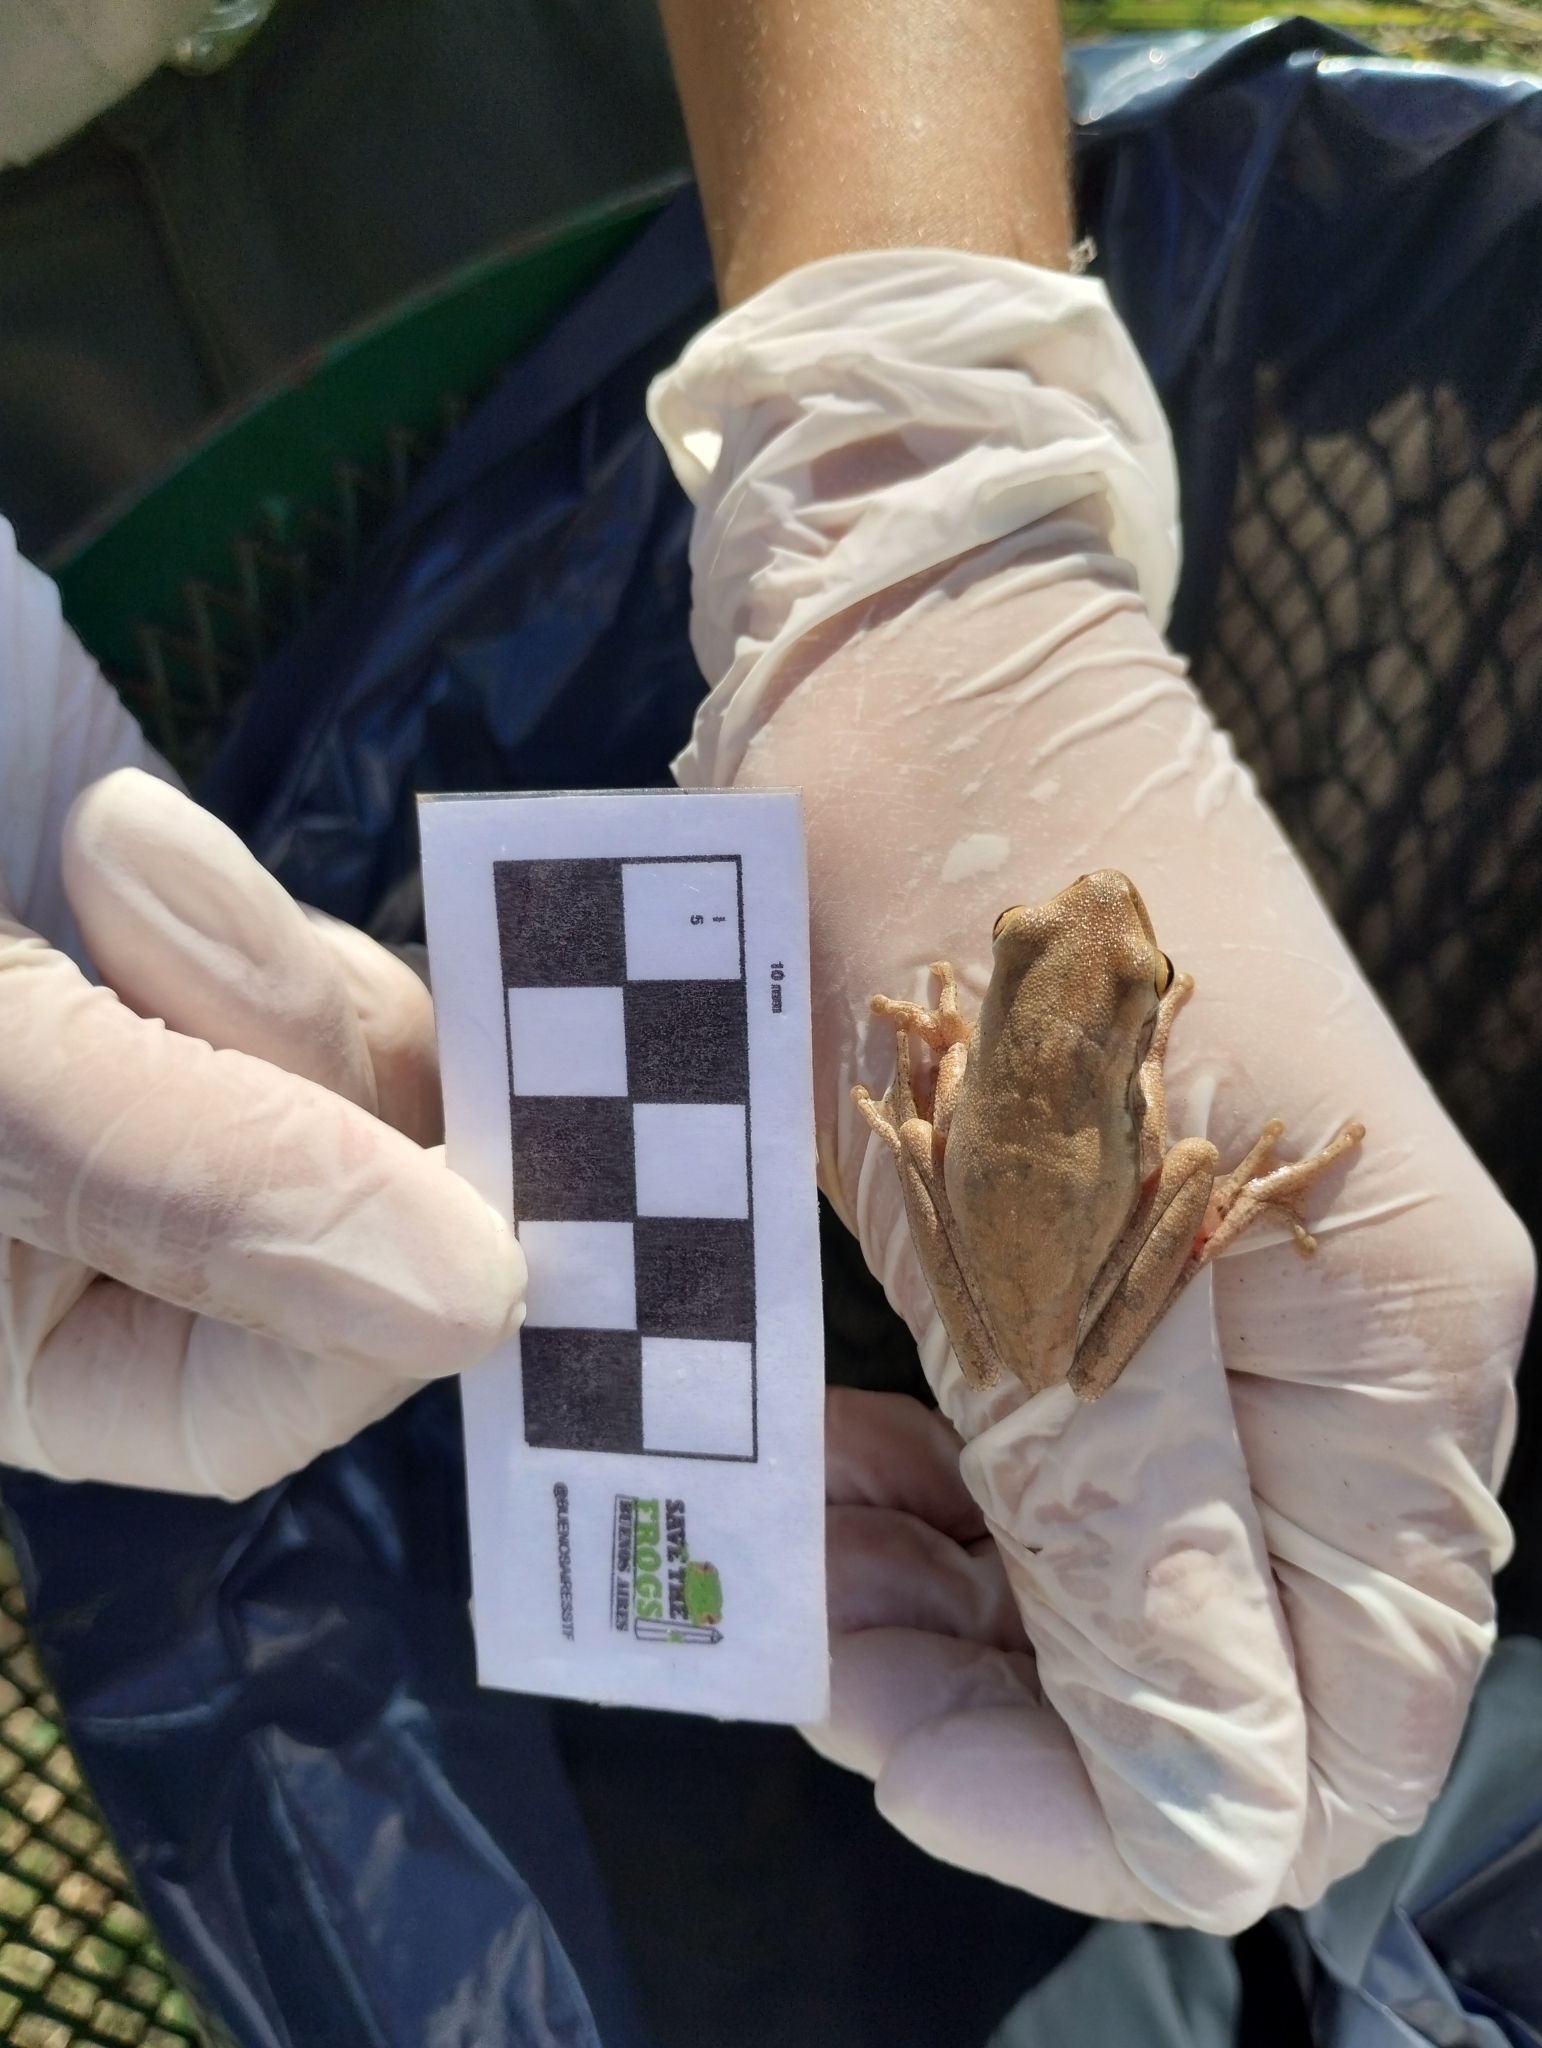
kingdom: Animalia
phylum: Chordata
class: Amphibia
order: Anura
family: Hylidae
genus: Boana
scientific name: Boana pulchella
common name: Montevideo treefrog
